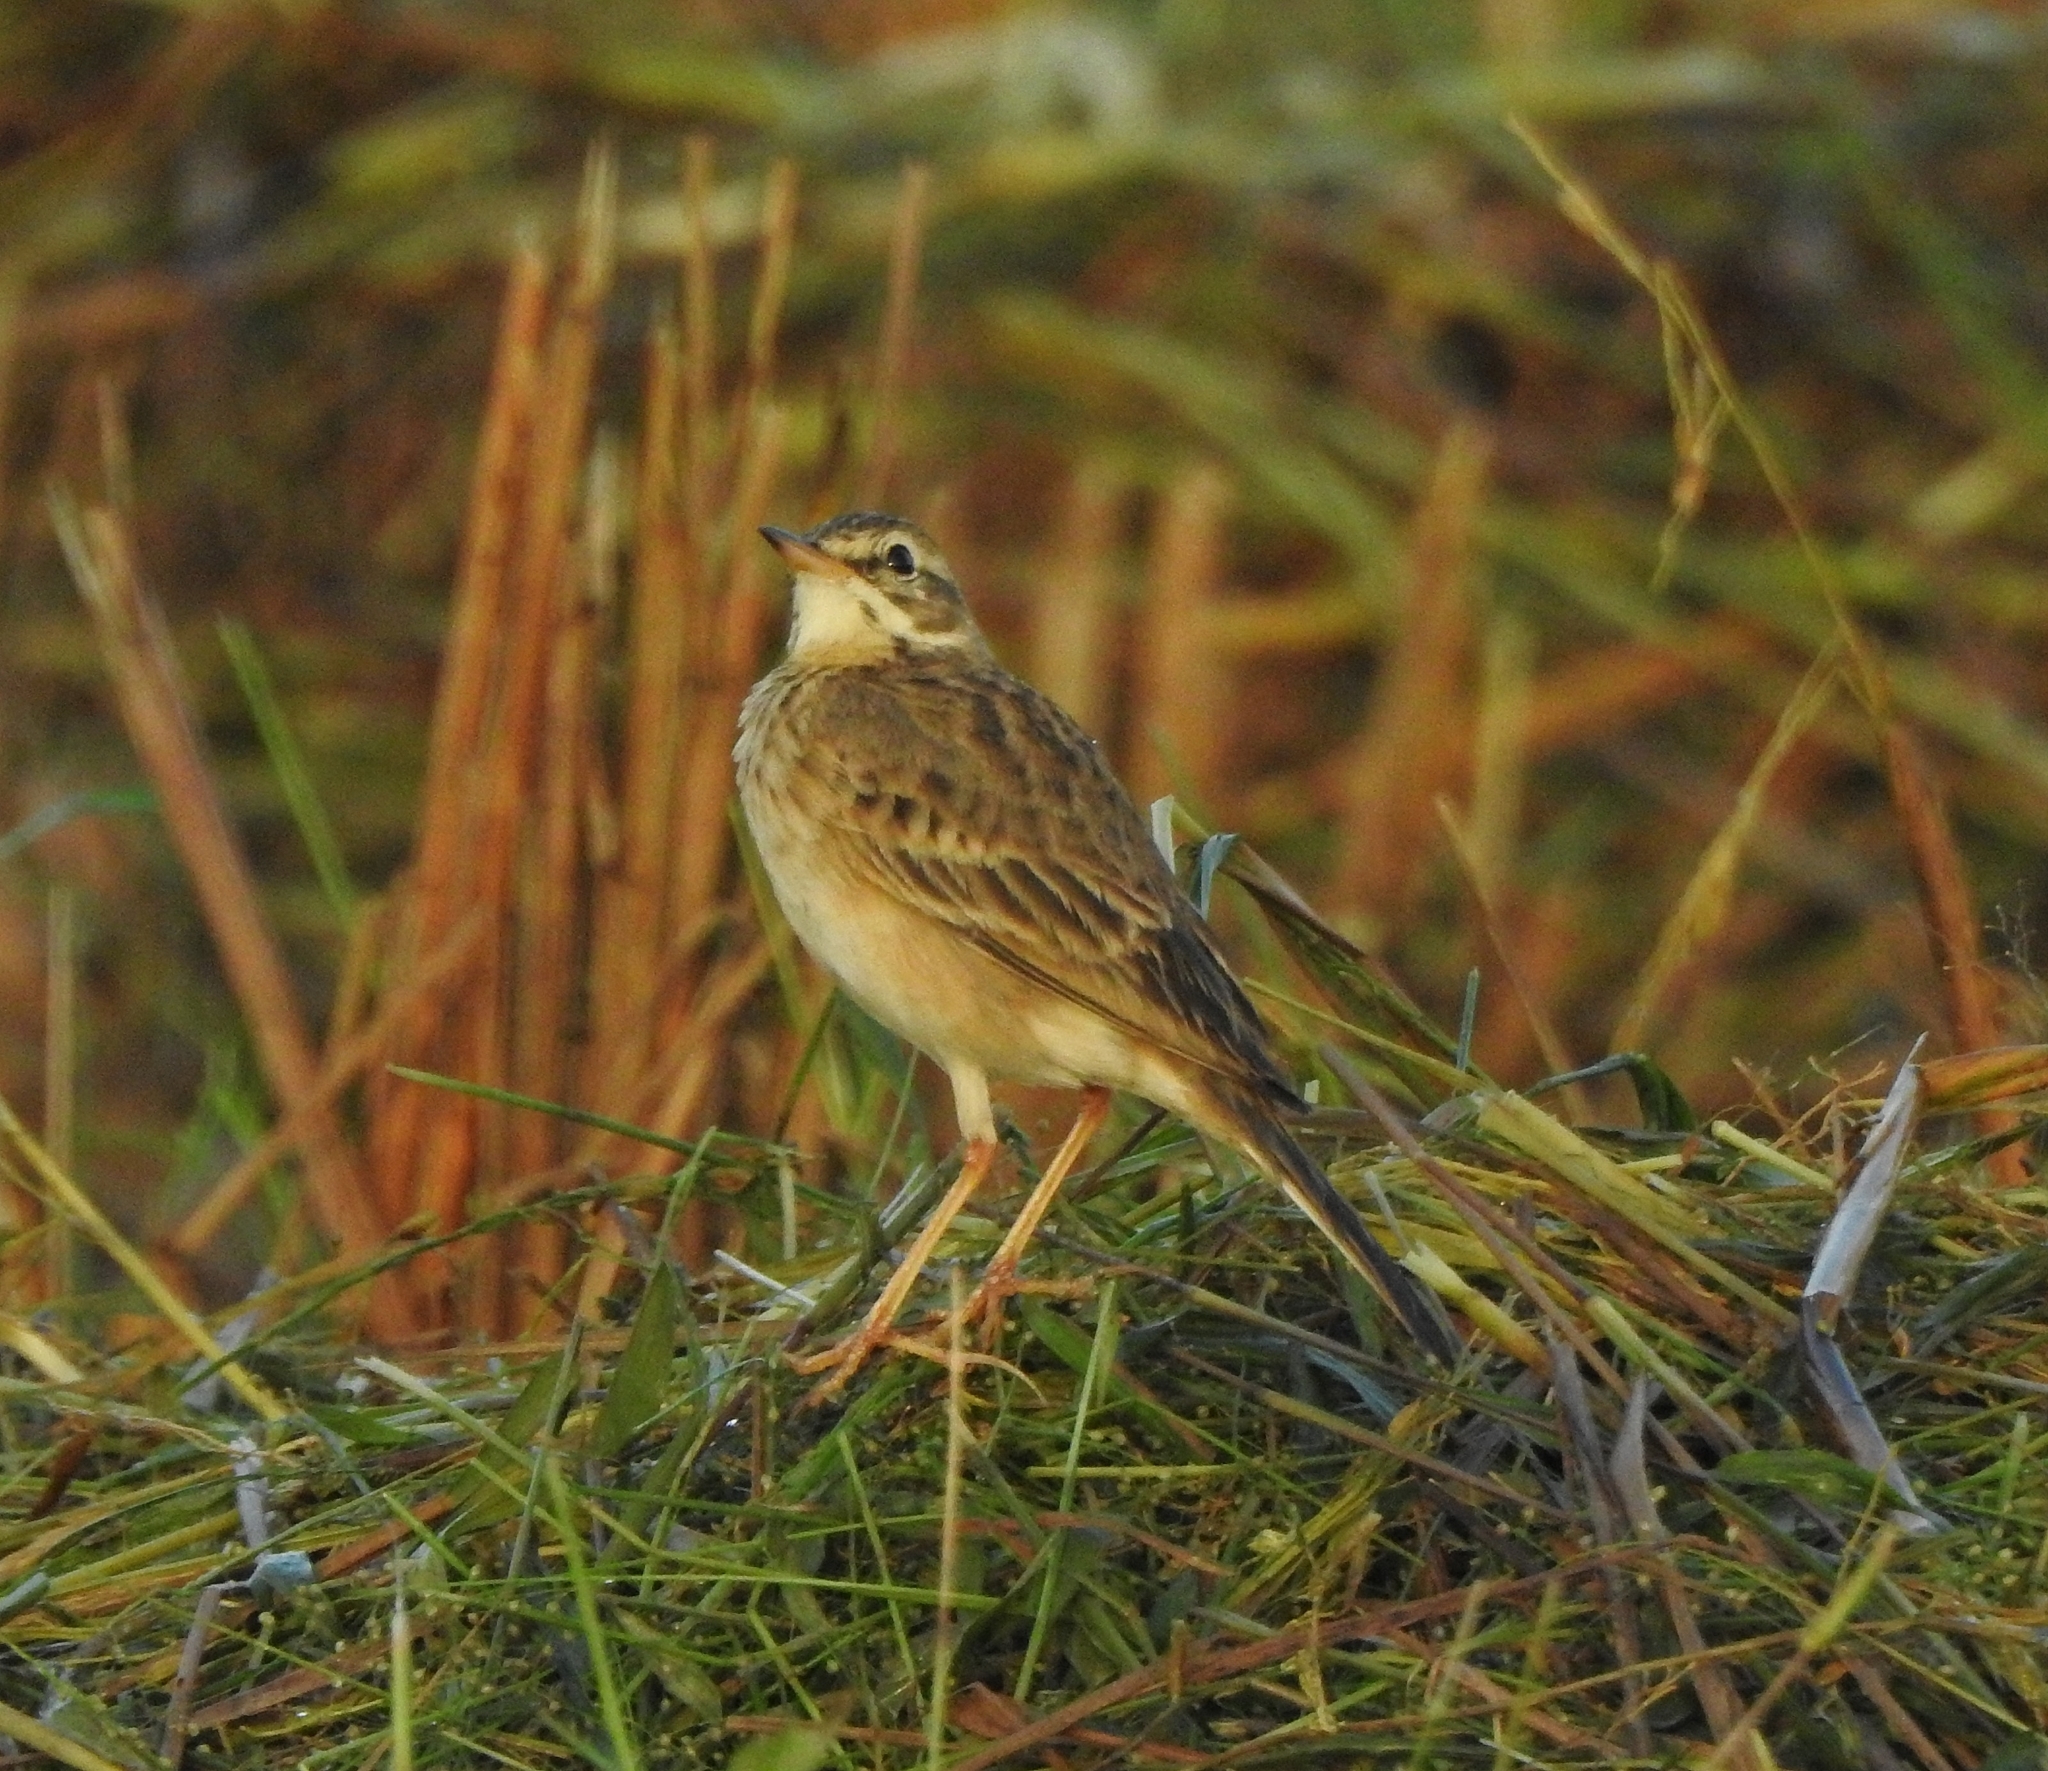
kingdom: Animalia
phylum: Chordata
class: Aves
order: Passeriformes
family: Motacillidae
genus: Anthus
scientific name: Anthus rufulus
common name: Paddyfield pipit
